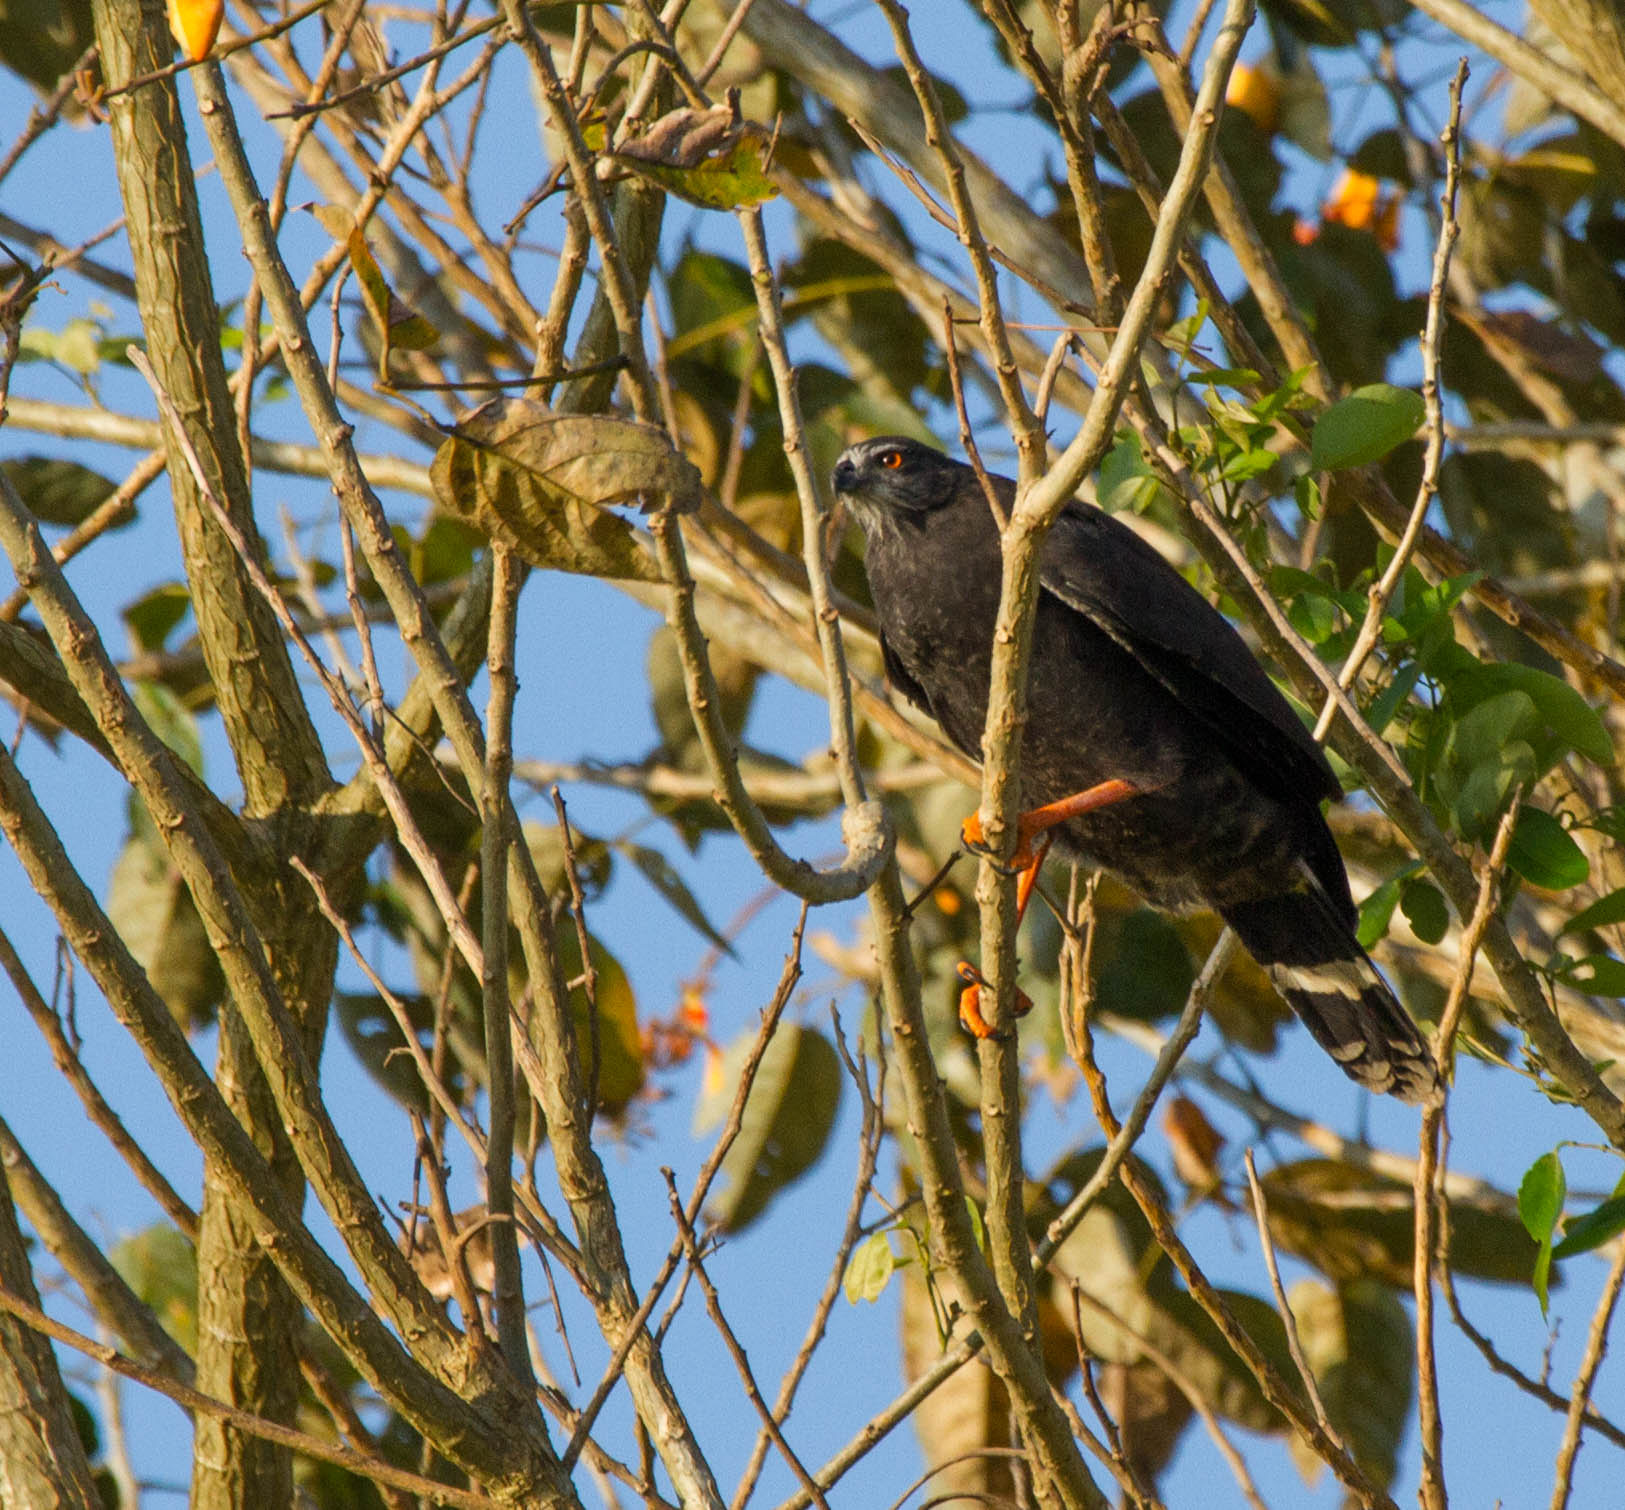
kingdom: Animalia
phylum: Chordata
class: Aves
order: Accipitriformes
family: Accipitridae
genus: Geranospiza
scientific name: Geranospiza caerulescens
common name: Crane hawk
